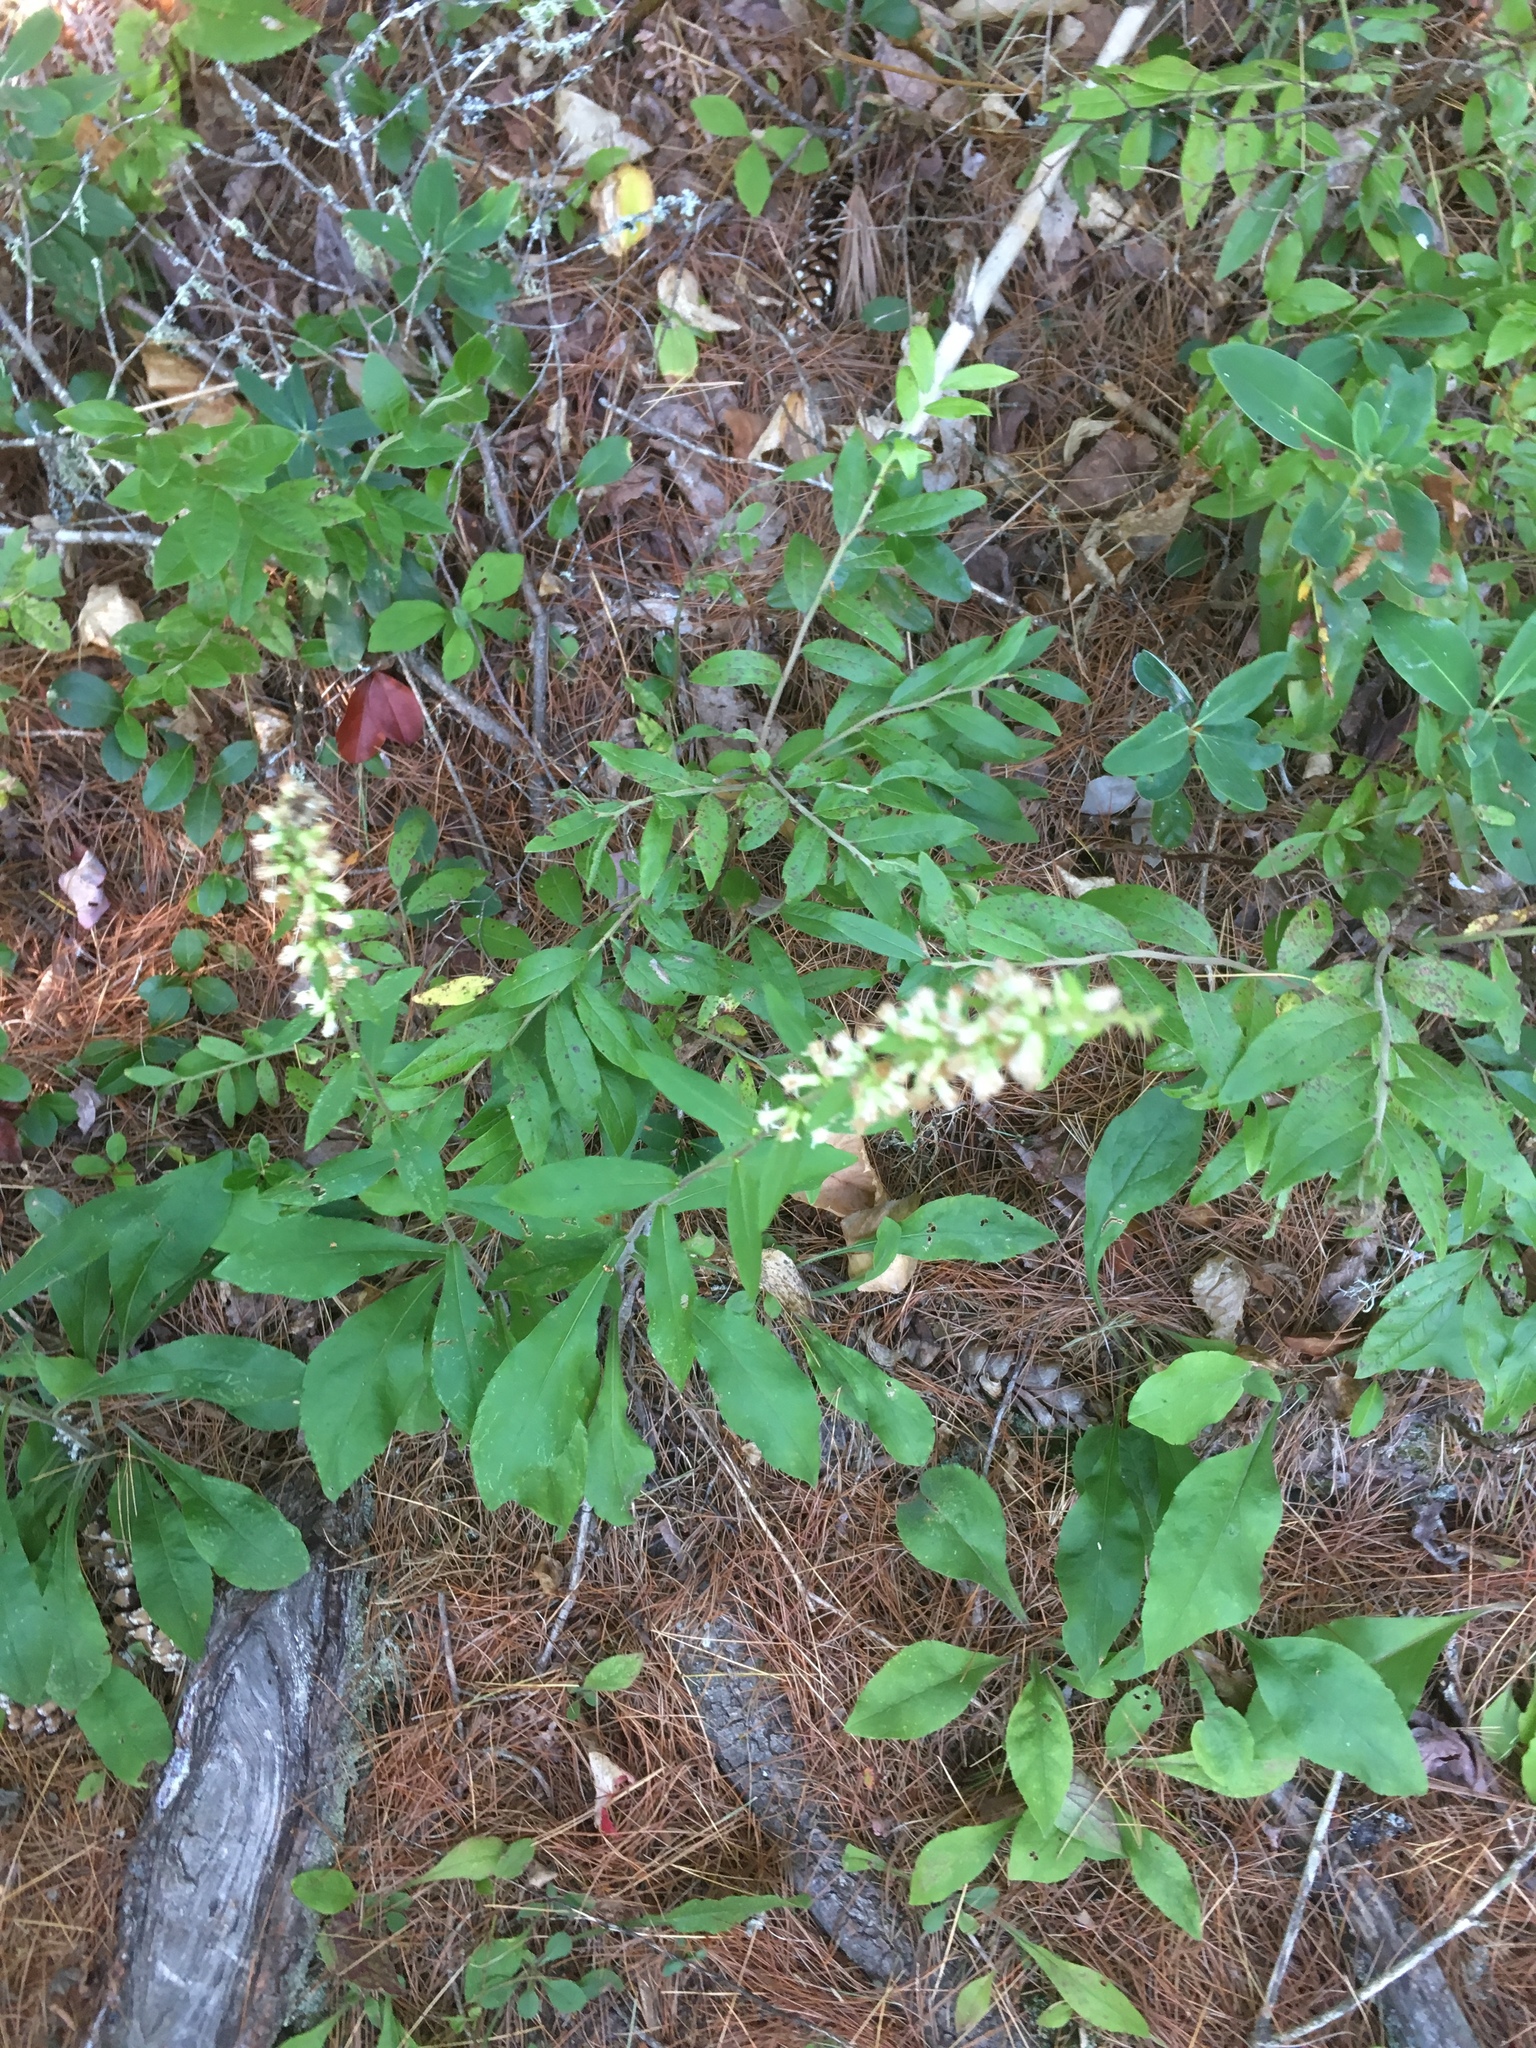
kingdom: Plantae
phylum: Tracheophyta
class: Magnoliopsida
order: Asterales
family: Asteraceae
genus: Solidago
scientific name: Solidago bicolor
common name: Silverrod
